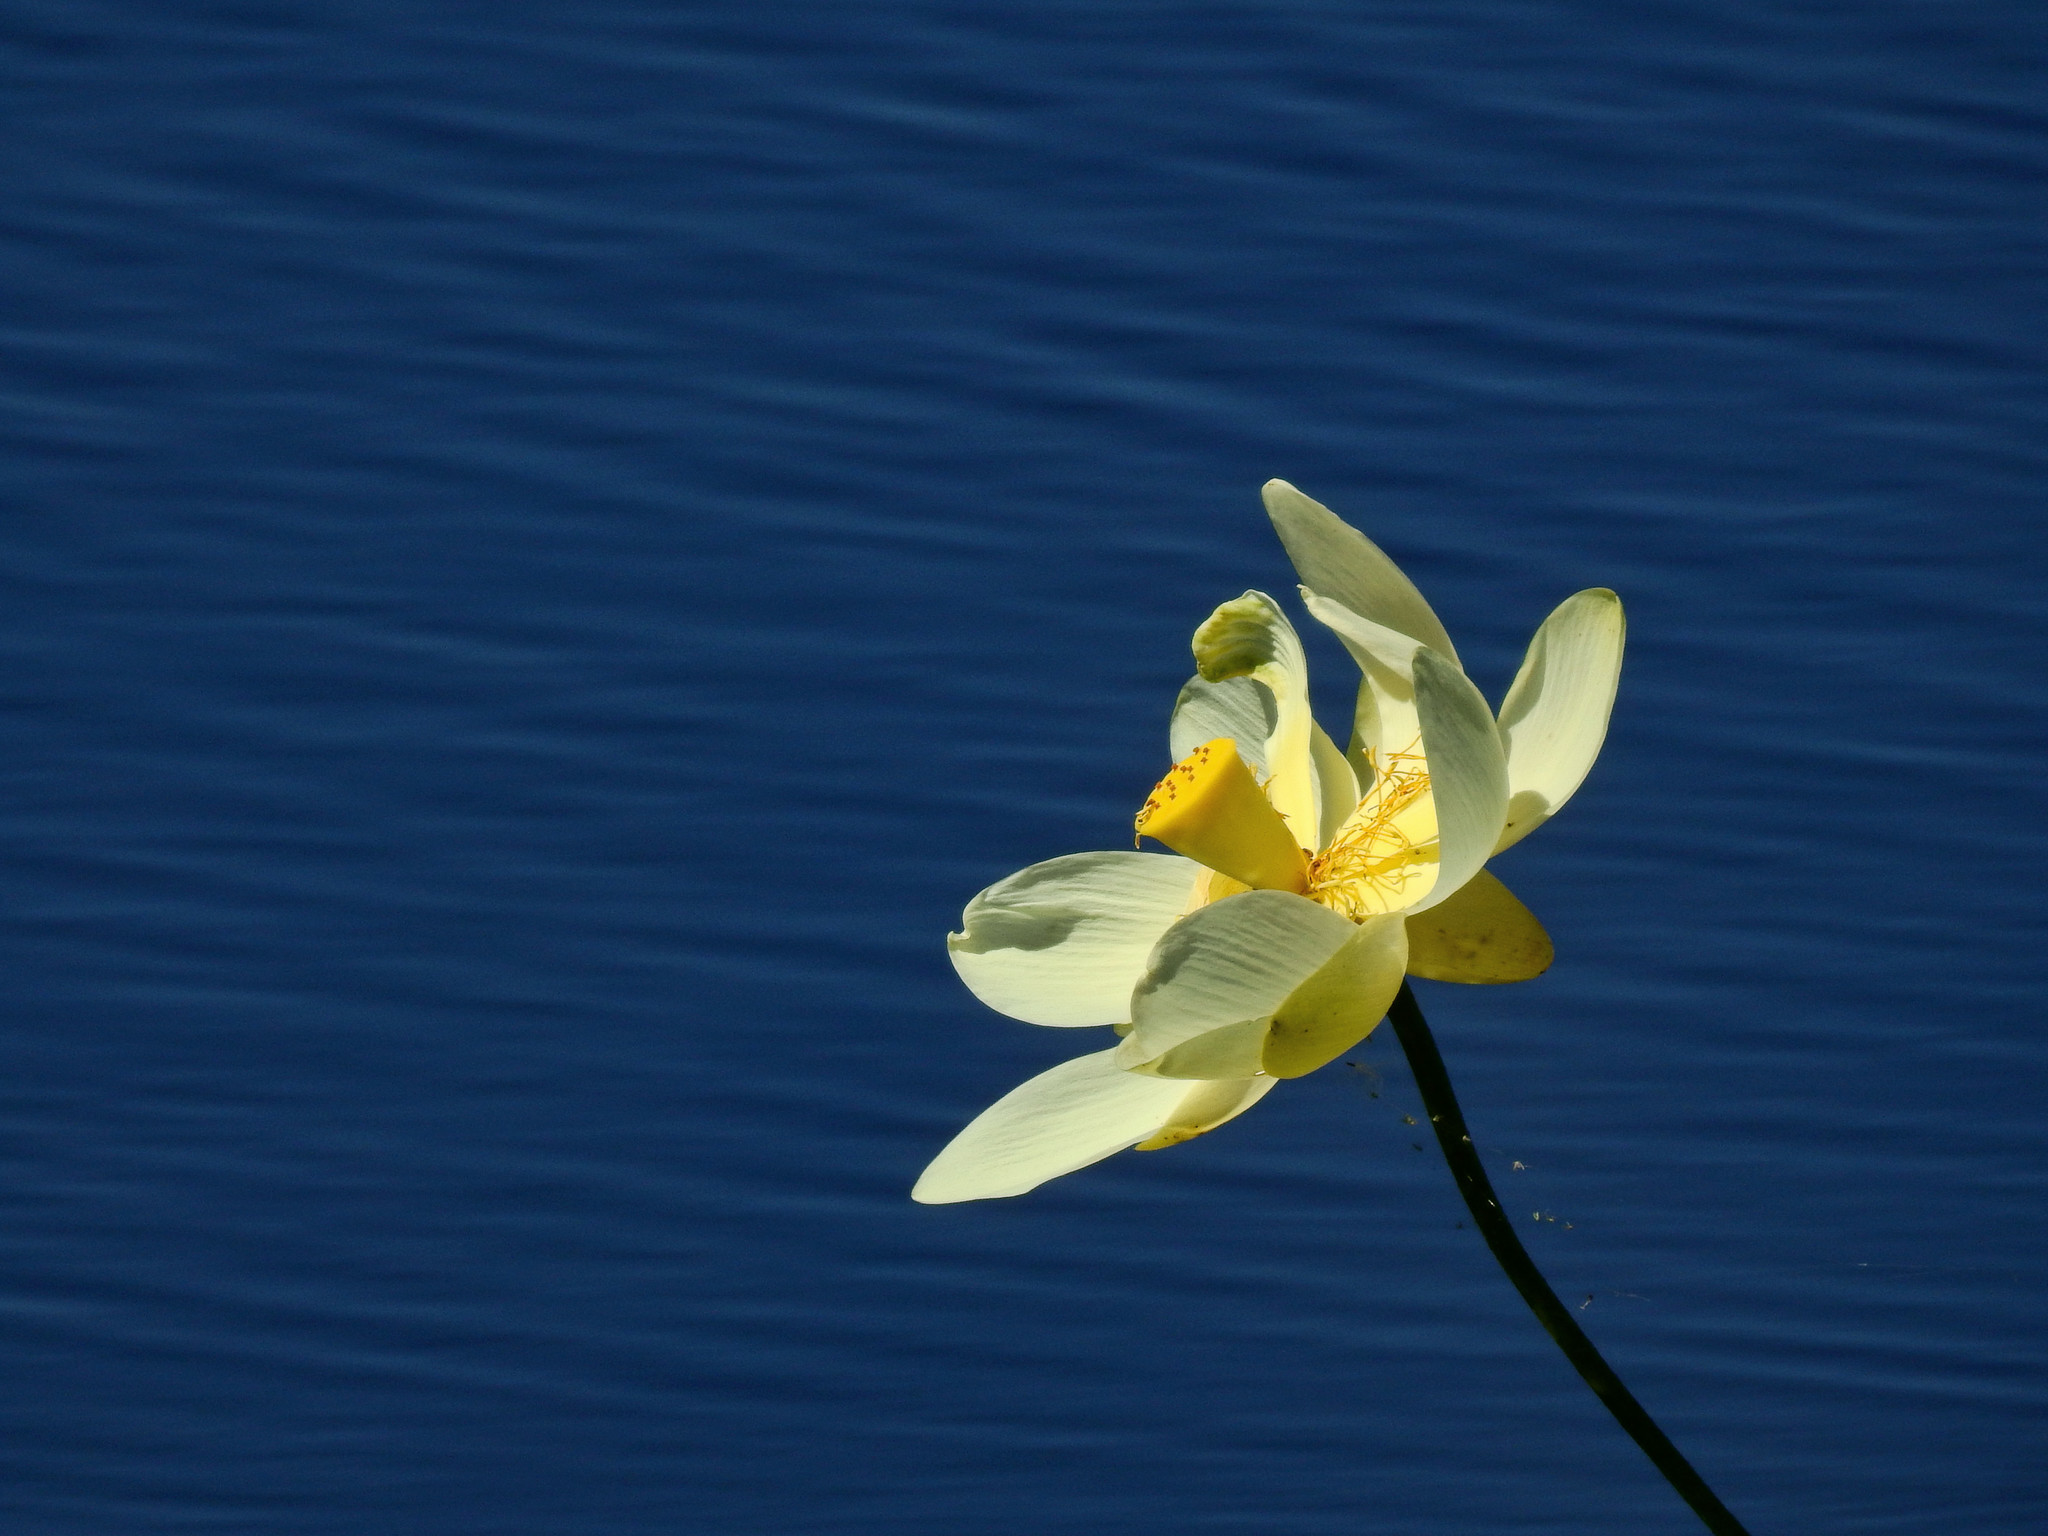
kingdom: Plantae
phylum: Tracheophyta
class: Magnoliopsida
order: Proteales
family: Nelumbonaceae
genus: Nelumbo
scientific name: Nelumbo lutea
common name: American lotus
